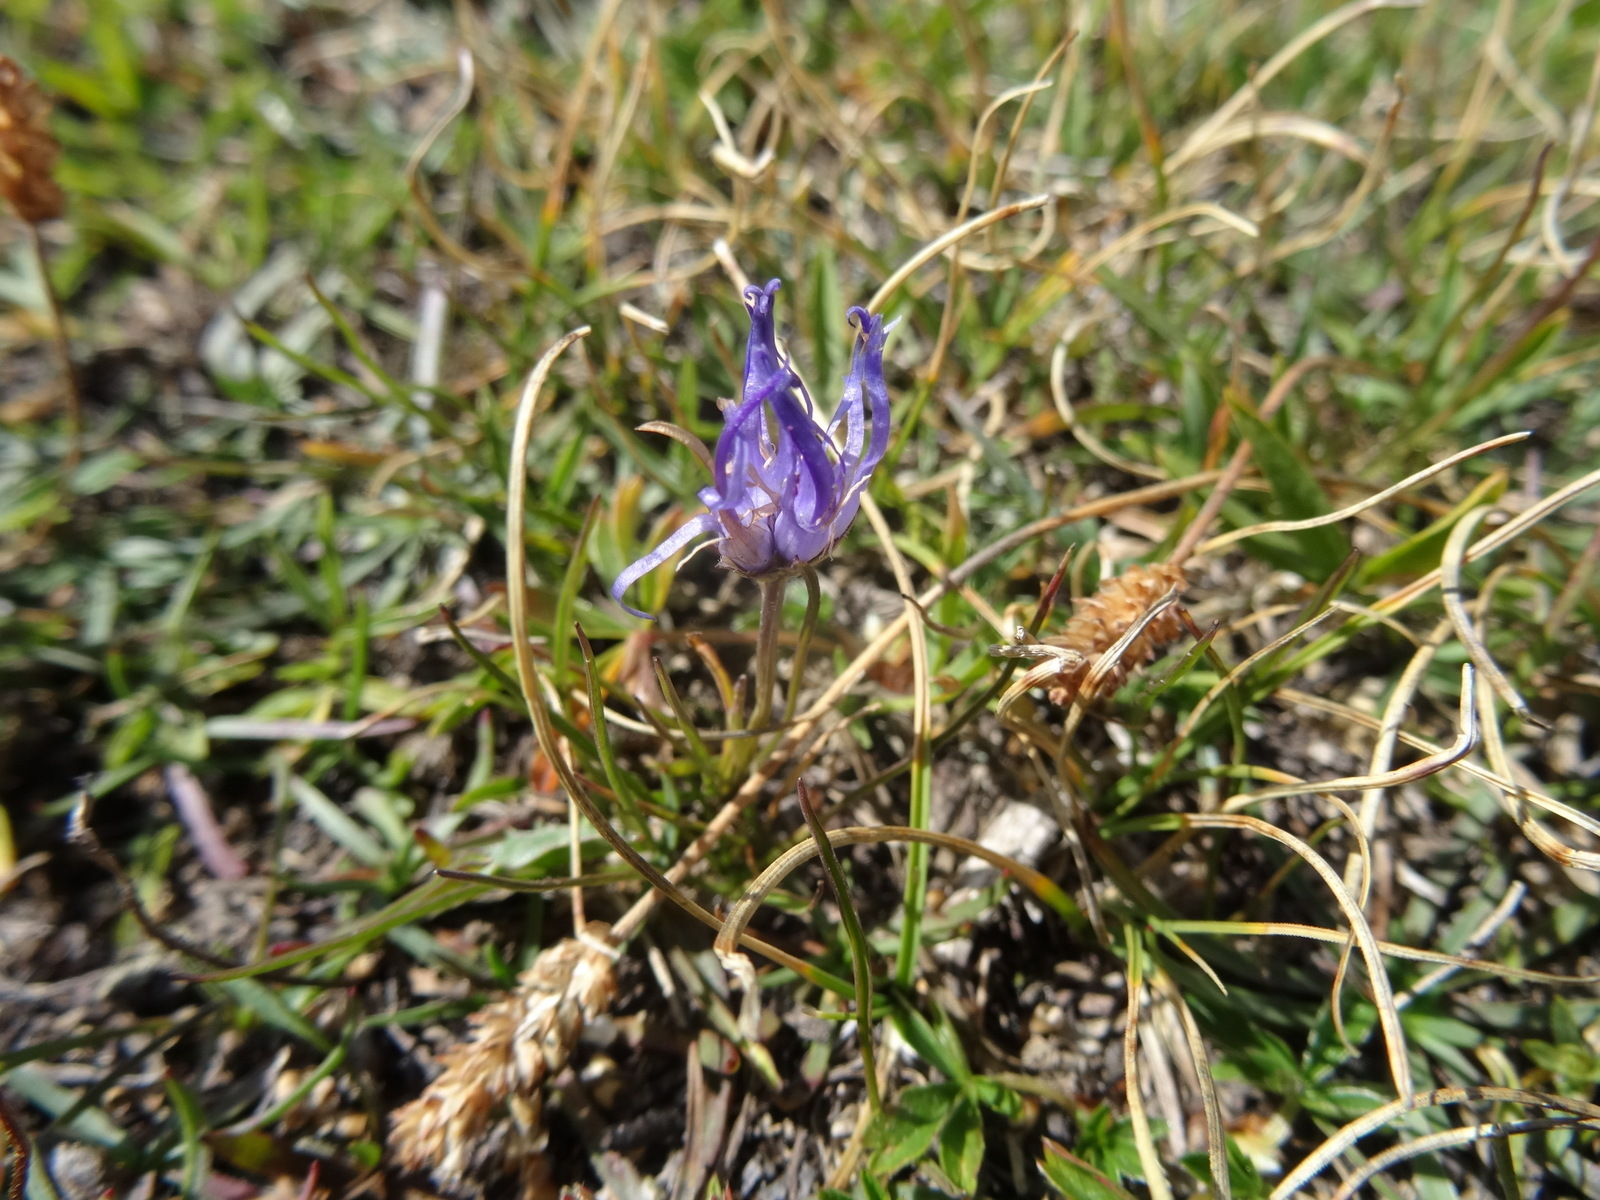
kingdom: Plantae
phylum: Tracheophyta
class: Magnoliopsida
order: Asterales
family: Campanulaceae
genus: Phyteuma
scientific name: Phyteuma hemisphaericum
